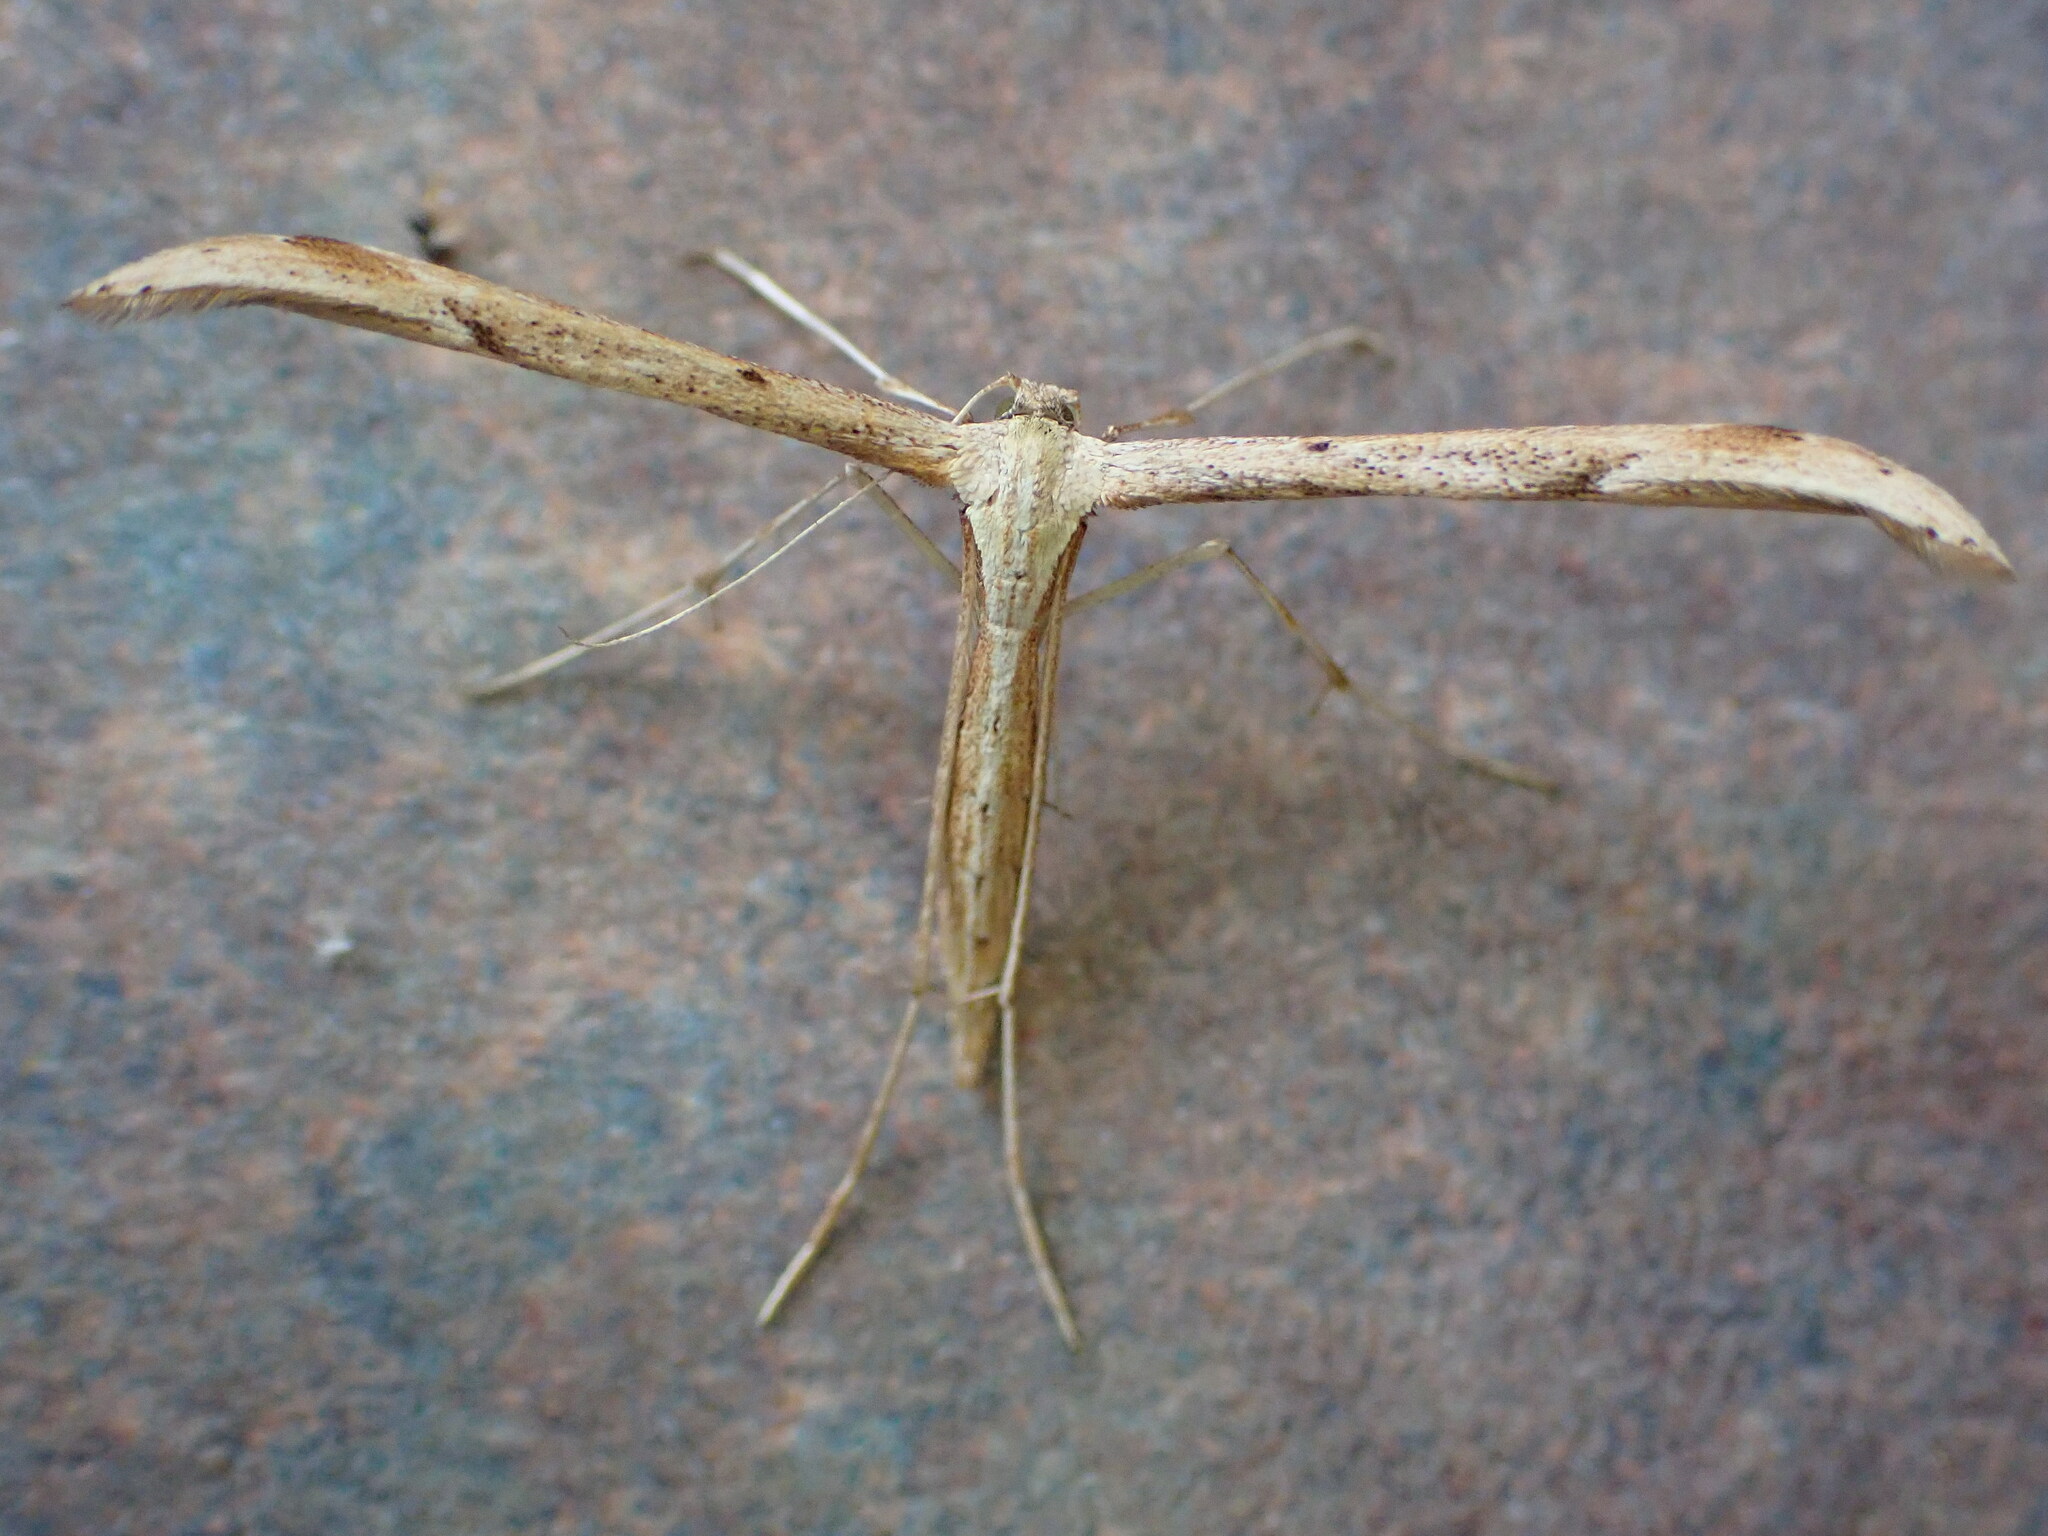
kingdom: Animalia
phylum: Arthropoda
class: Insecta
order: Lepidoptera
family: Pterophoridae
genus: Emmelina
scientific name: Emmelina monodactyla
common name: Common plume
